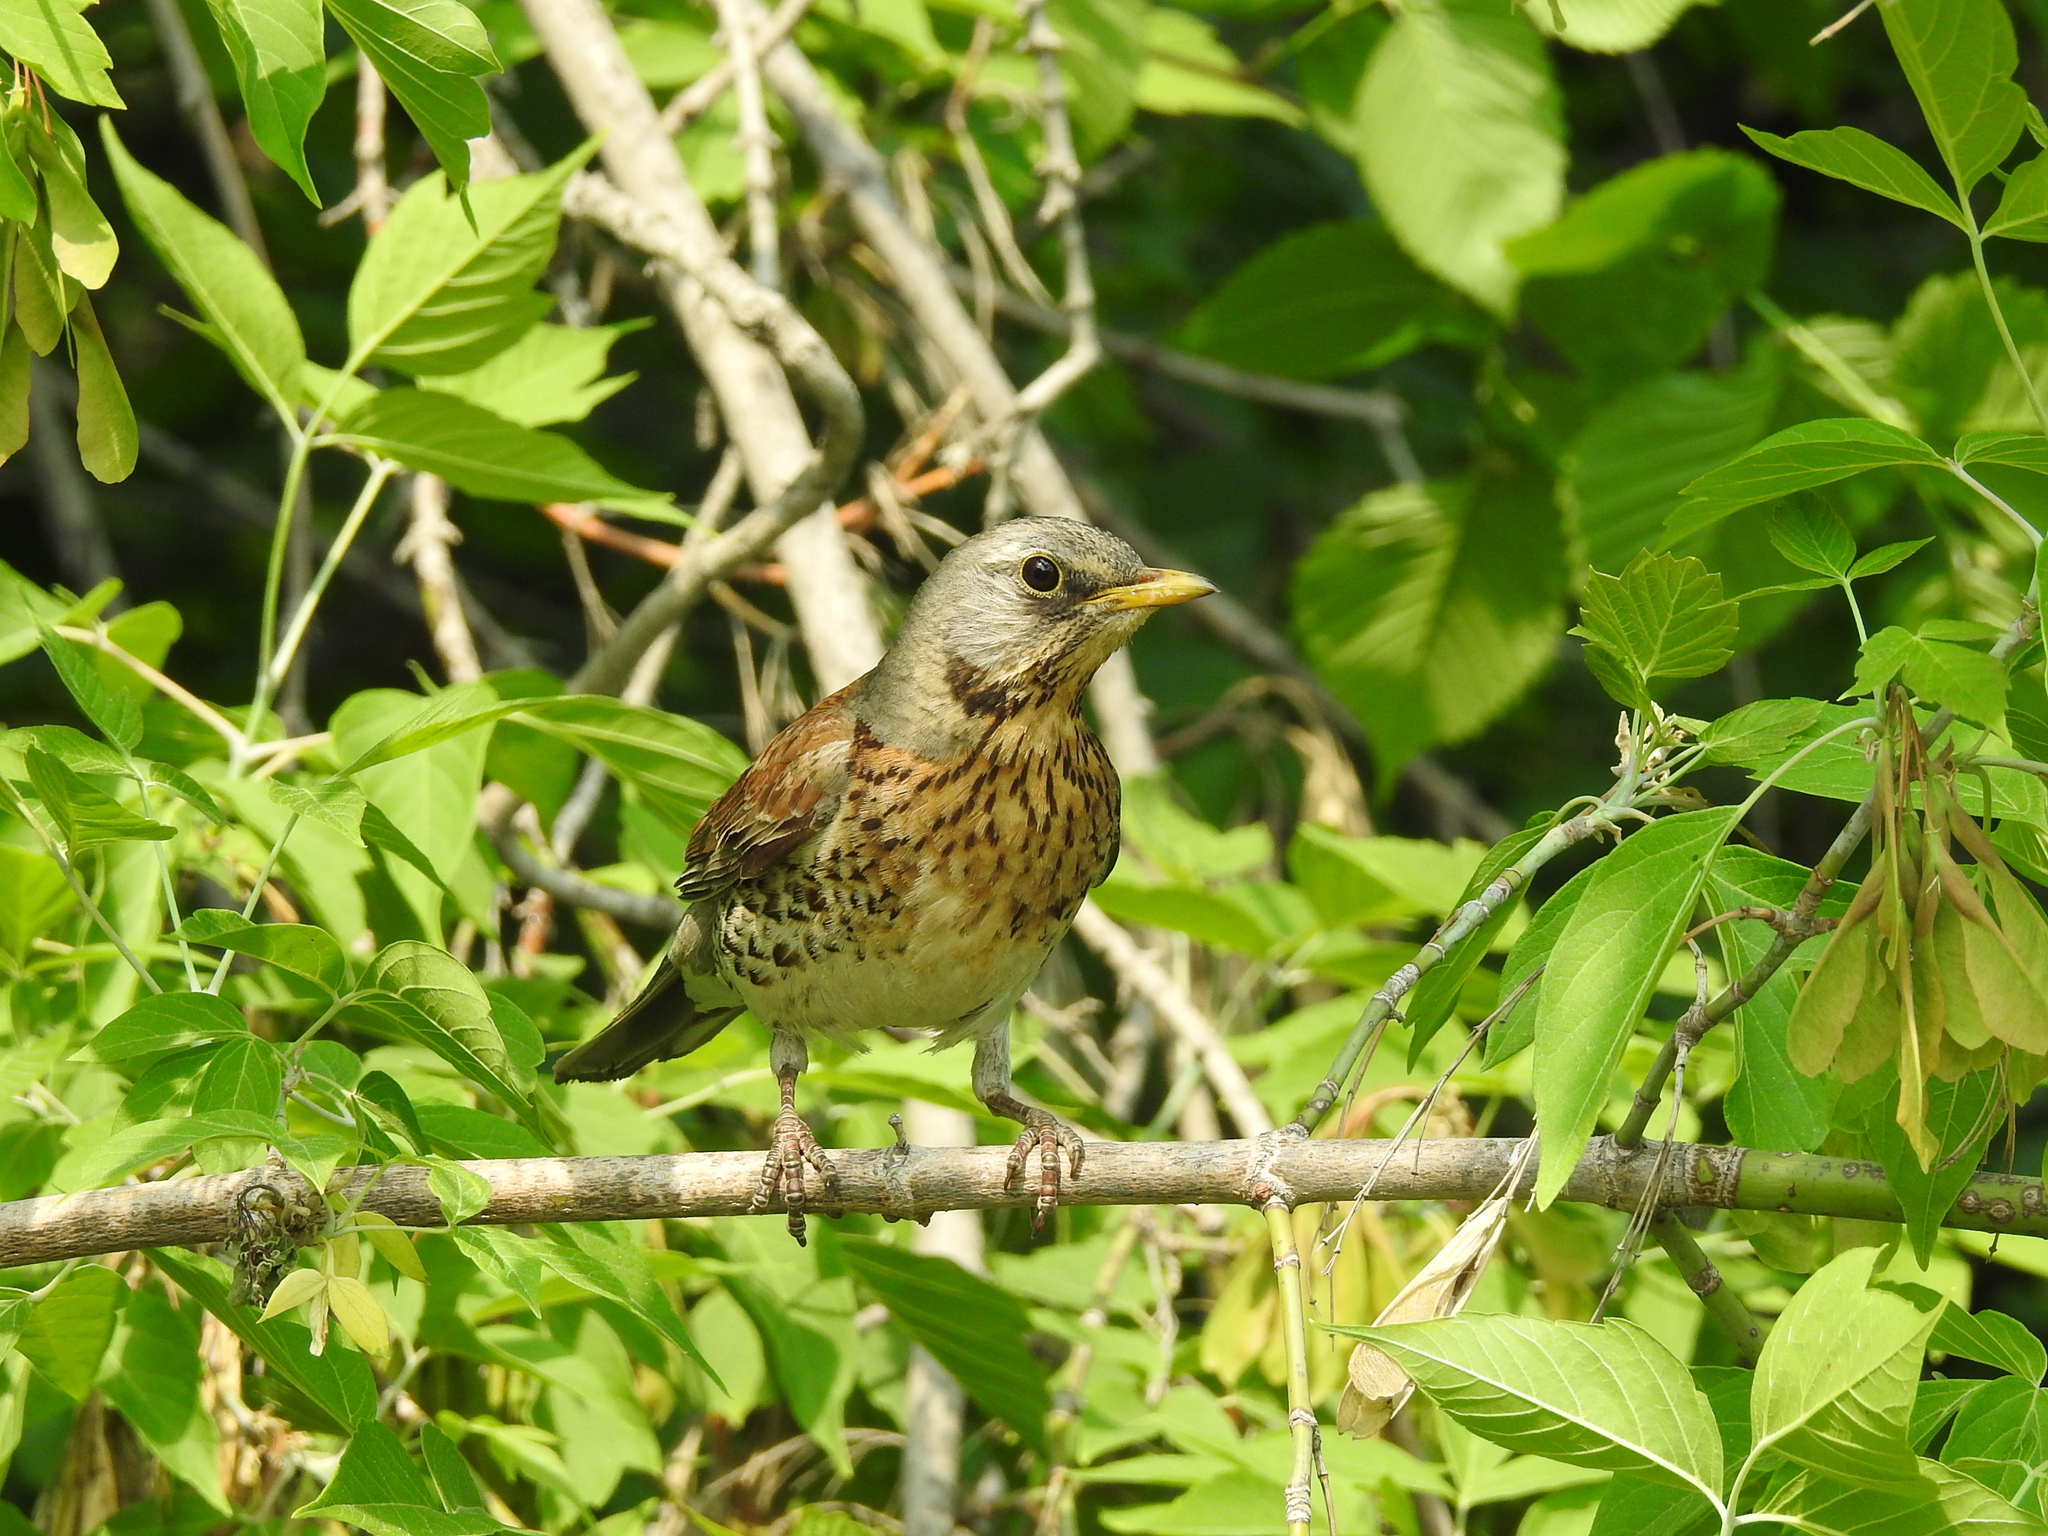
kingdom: Animalia
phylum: Chordata
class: Aves
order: Passeriformes
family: Turdidae
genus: Turdus
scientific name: Turdus pilaris
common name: Fieldfare
